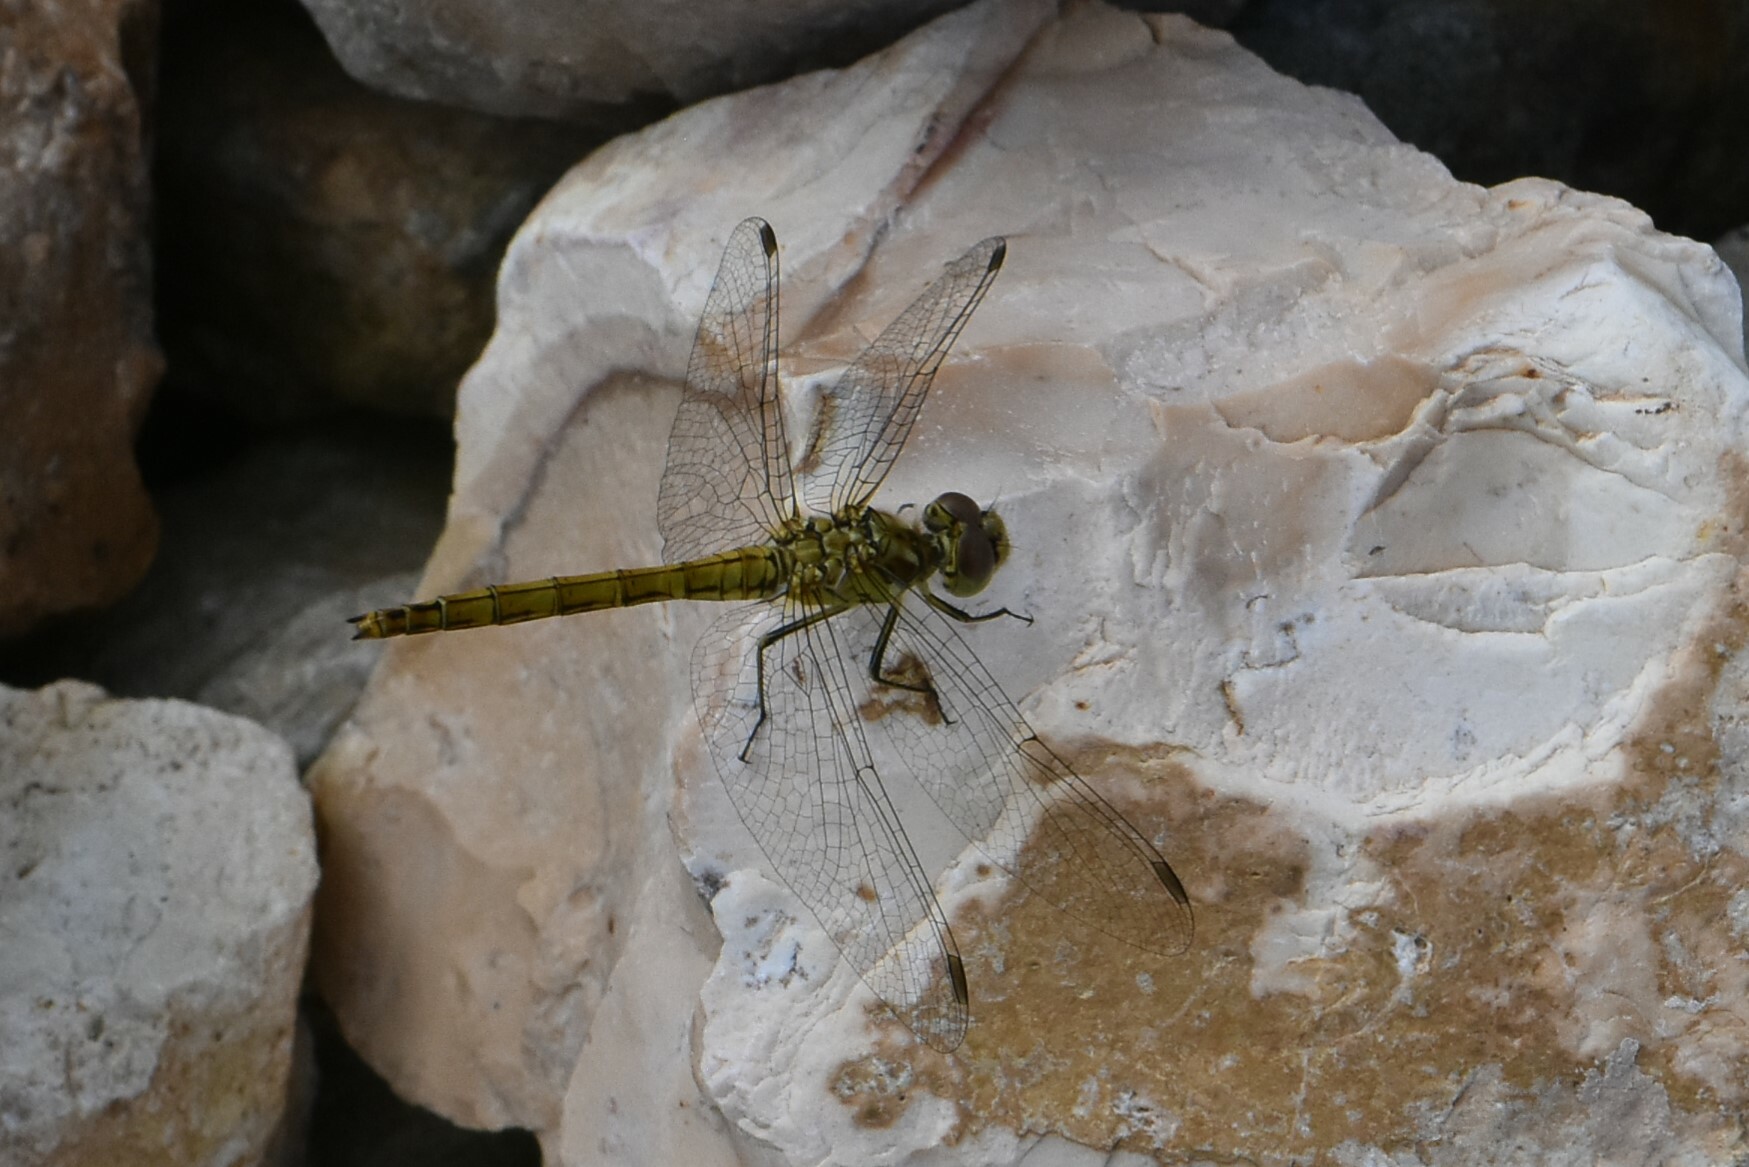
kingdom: Animalia
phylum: Arthropoda
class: Insecta
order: Odonata
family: Libellulidae
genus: Sympetrum
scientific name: Sympetrum vulgatum
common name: Vagrant darter
